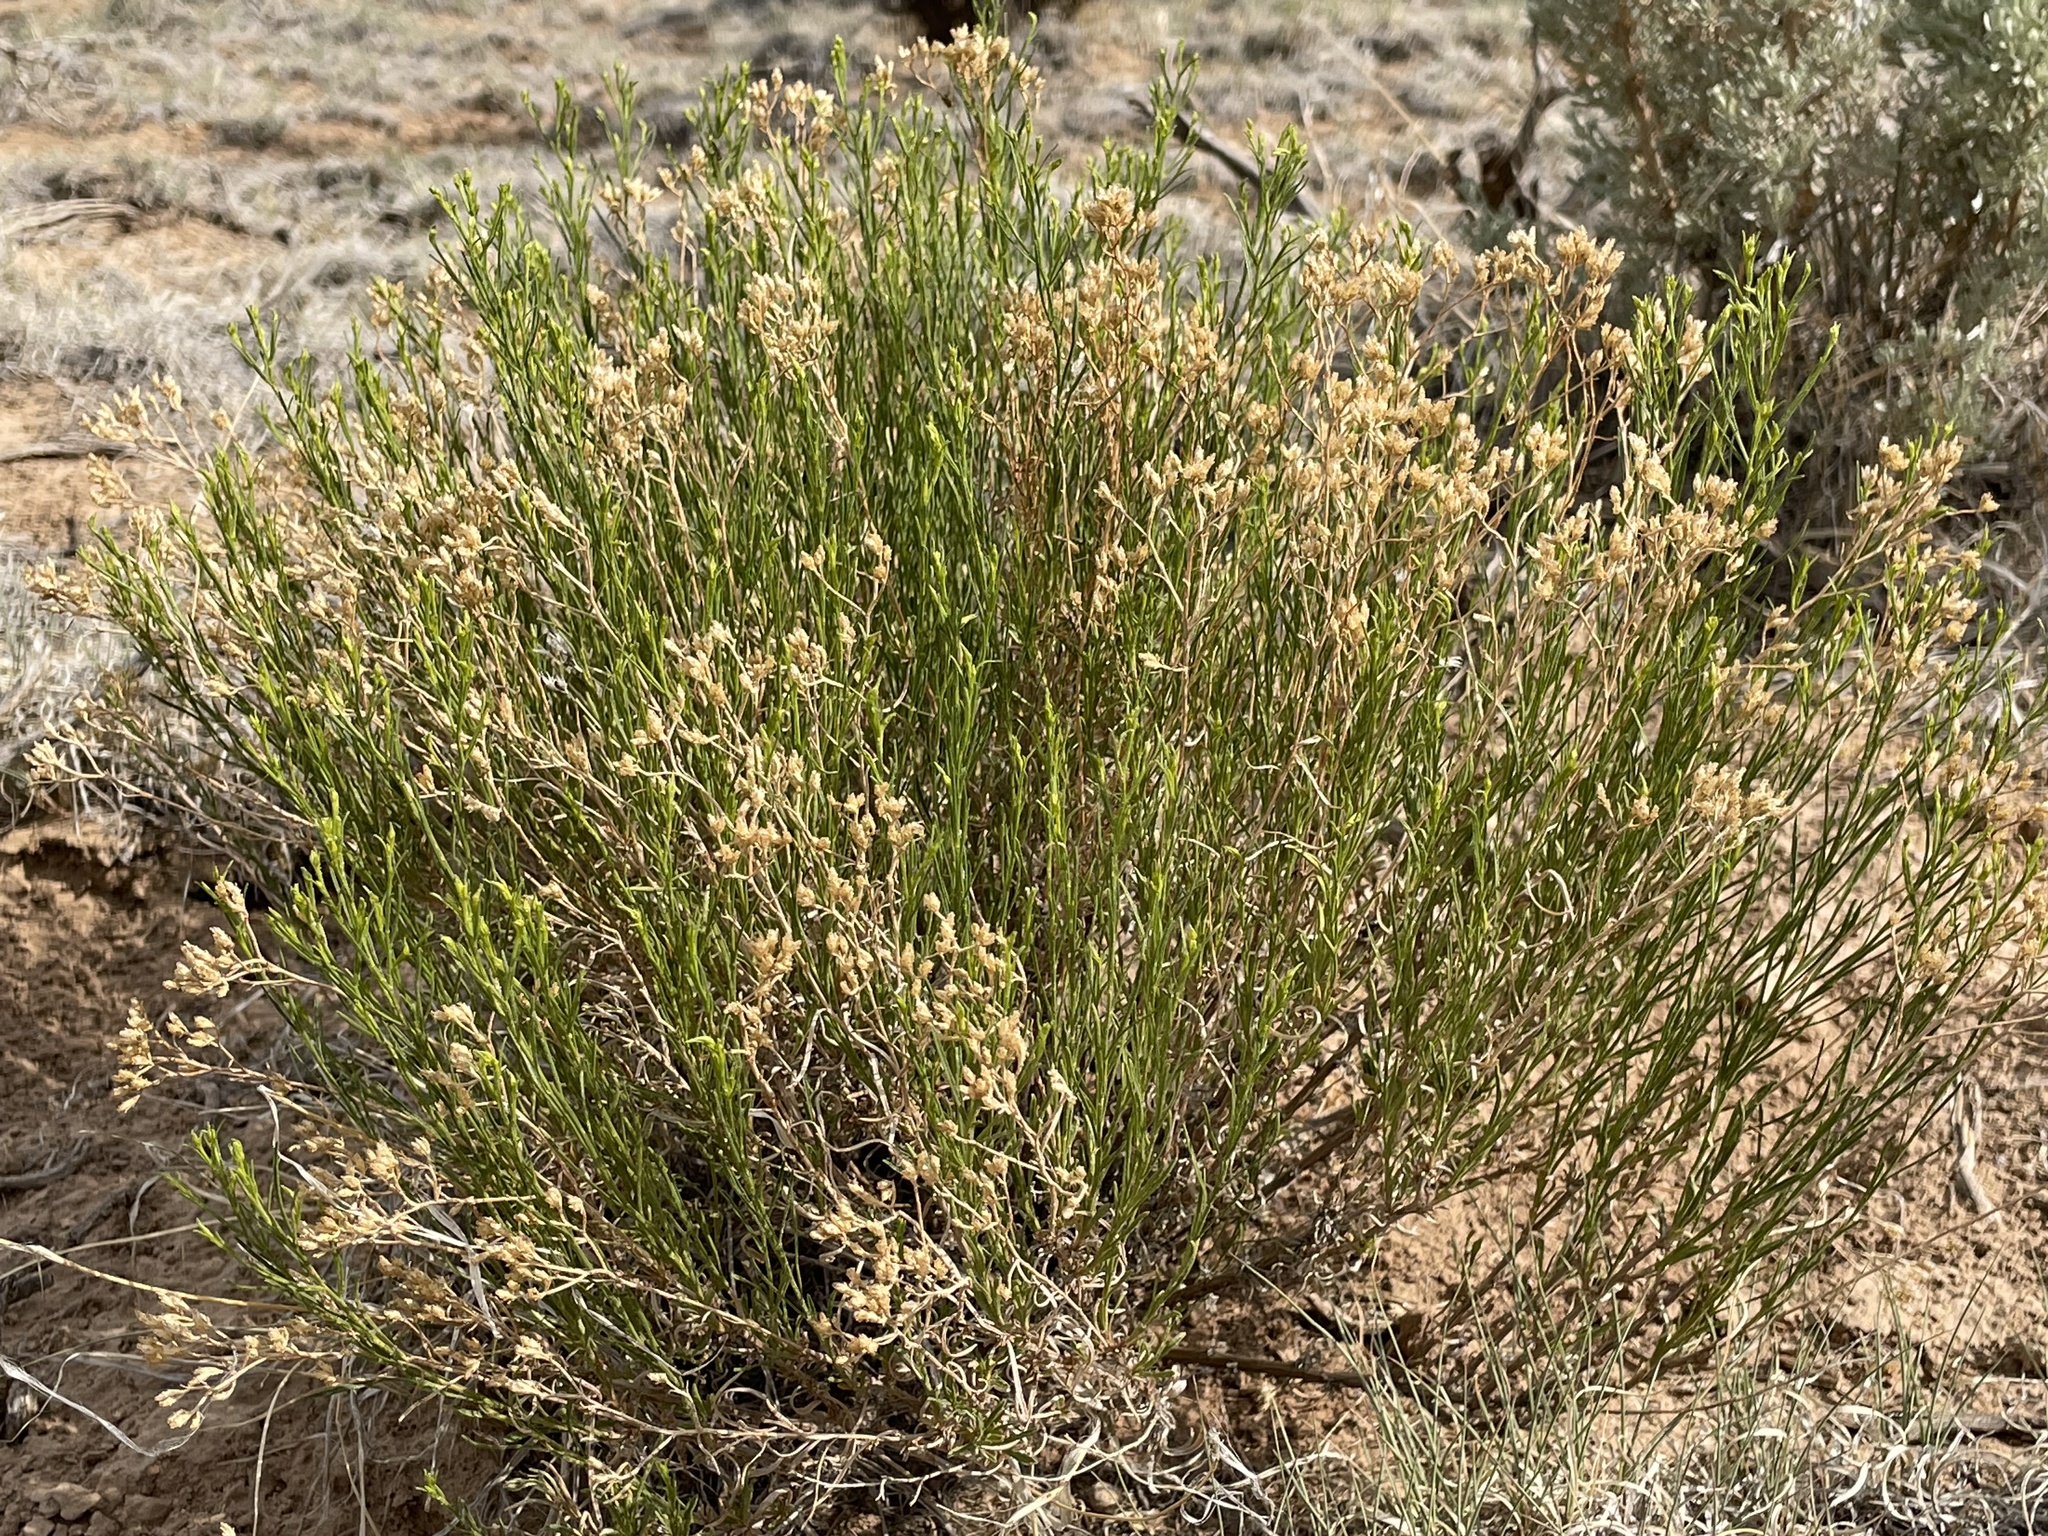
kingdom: Plantae
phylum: Tracheophyta
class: Magnoliopsida
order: Asterales
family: Asteraceae
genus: Gutierrezia
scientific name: Gutierrezia sarothrae
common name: Broom snakeweed
